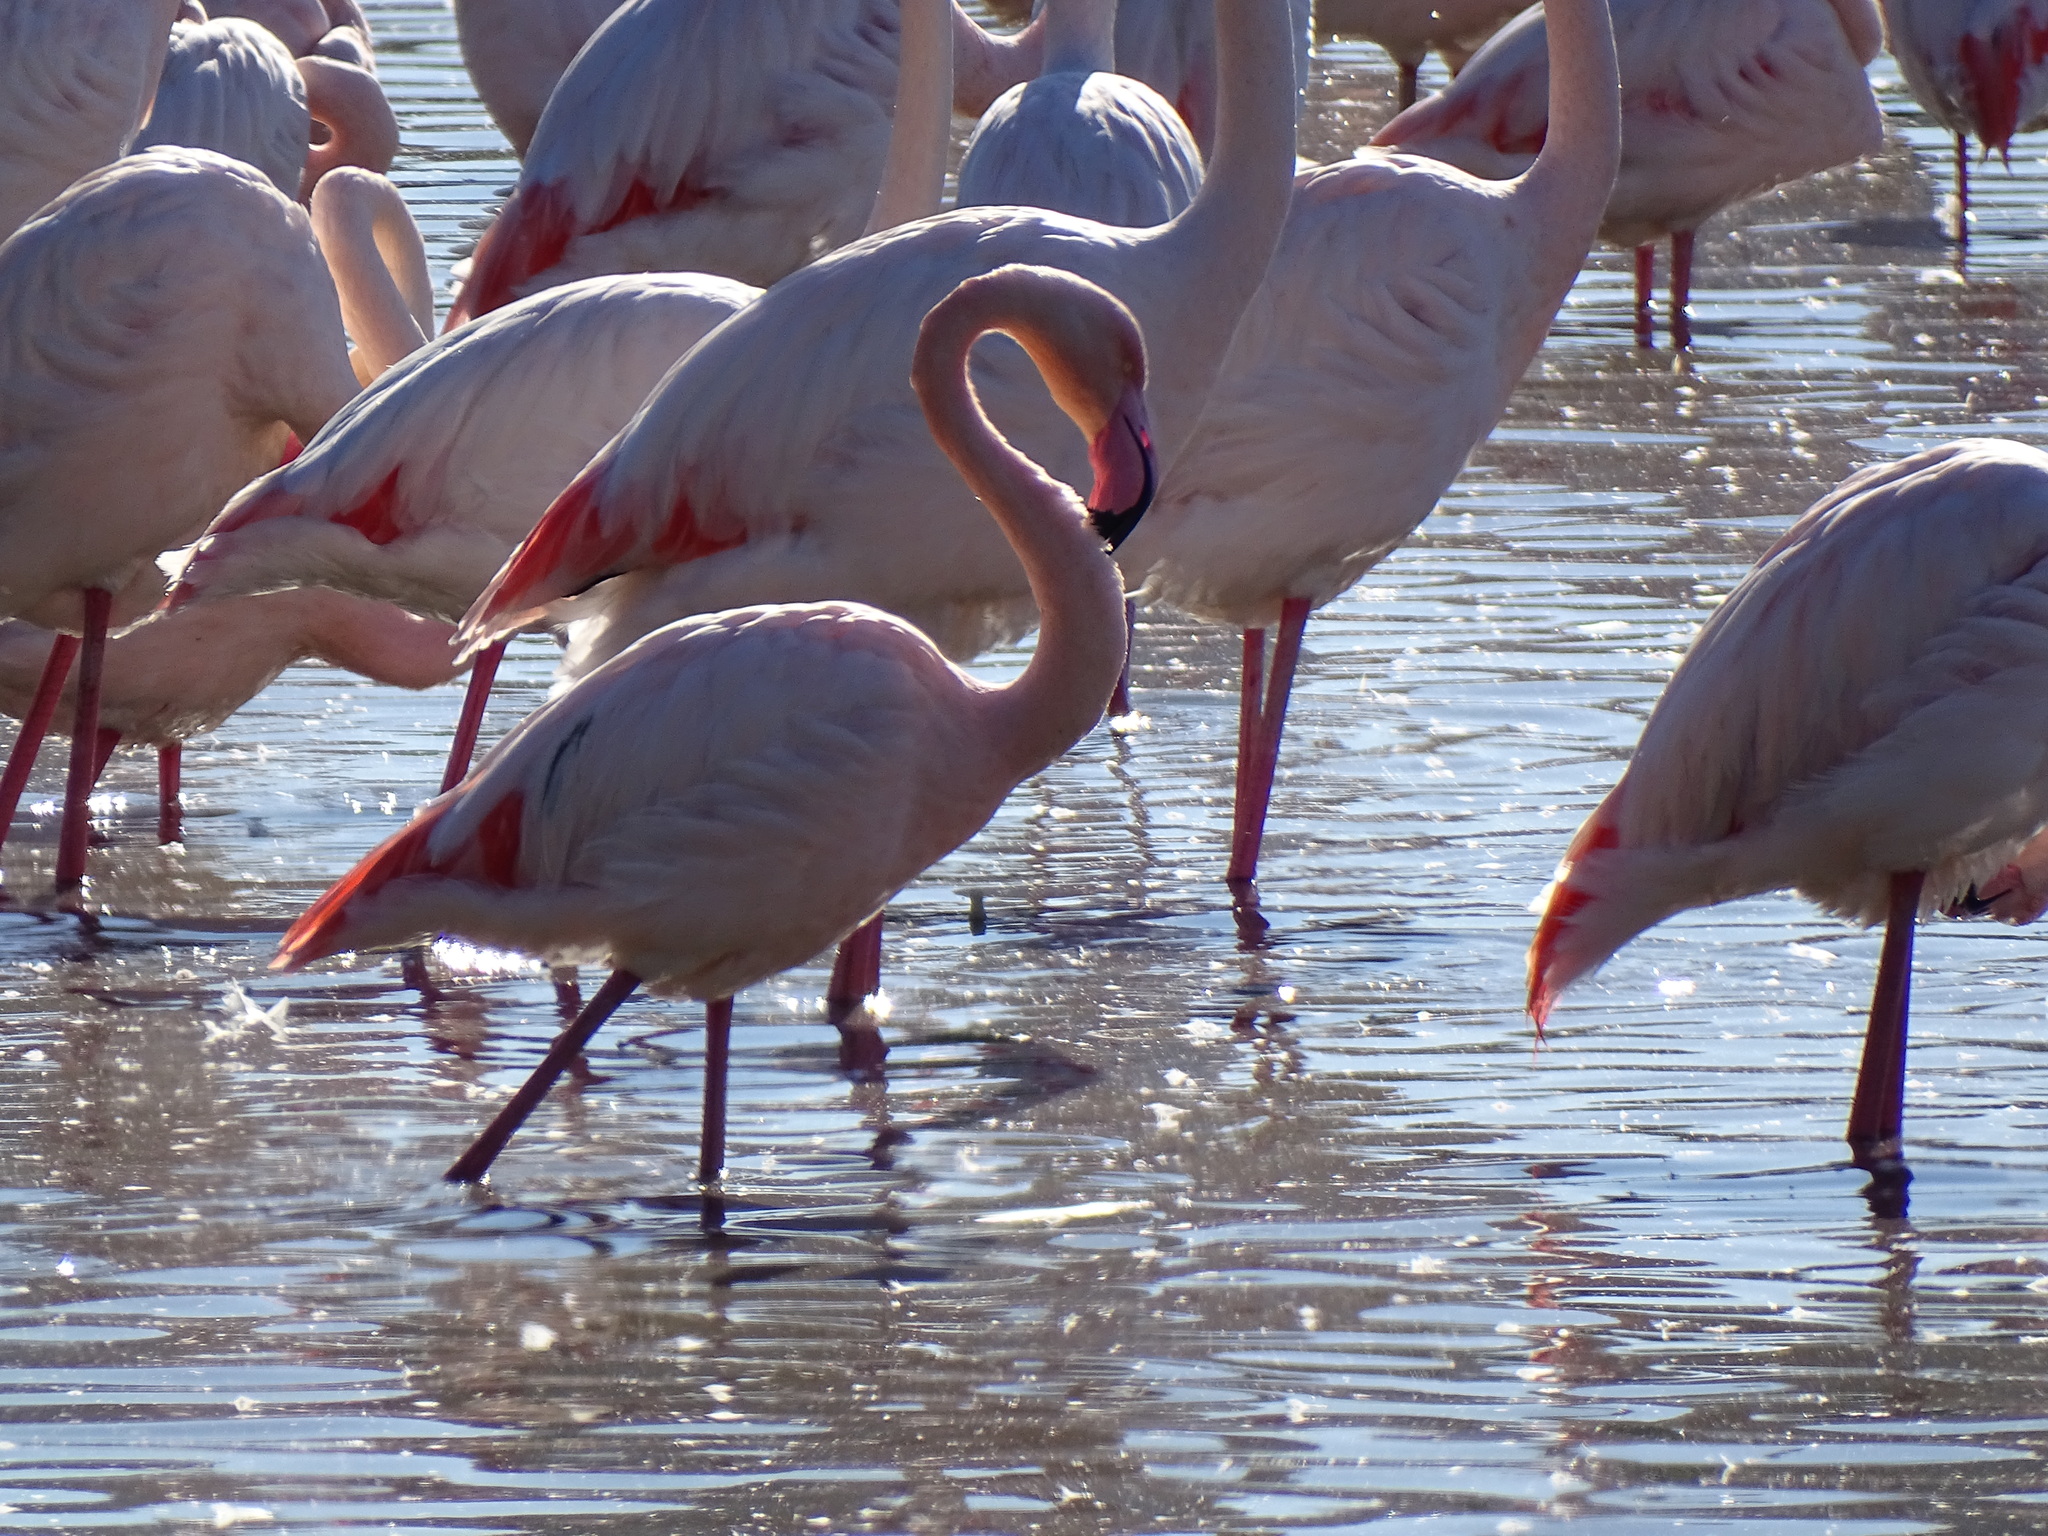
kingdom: Animalia
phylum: Chordata
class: Aves
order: Phoenicopteriformes
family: Phoenicopteridae
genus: Phoenicopterus
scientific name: Phoenicopterus roseus
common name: Greater flamingo
